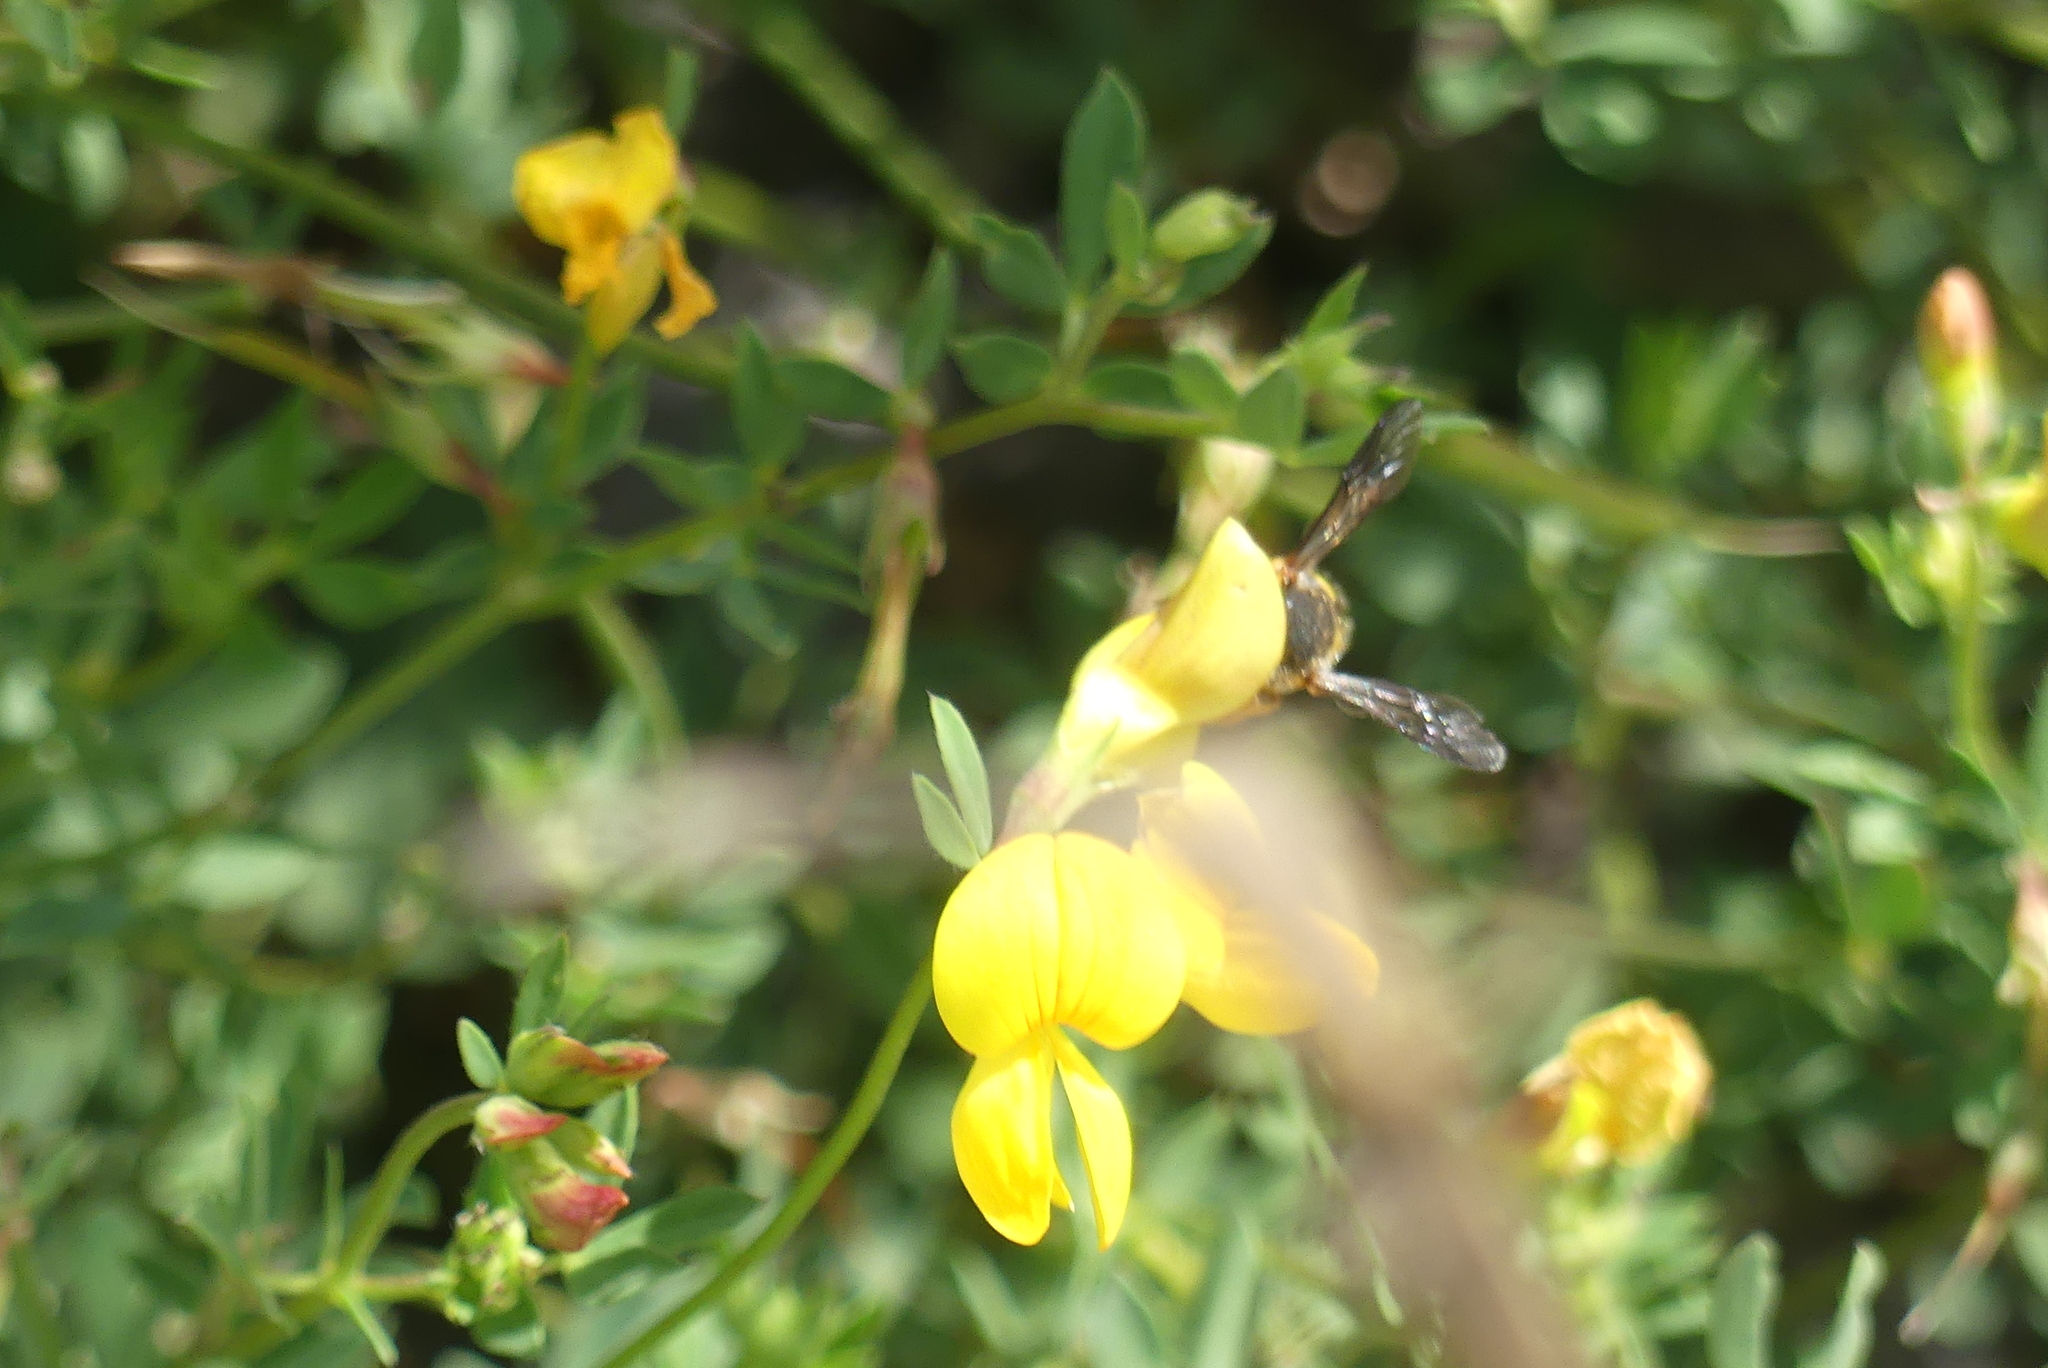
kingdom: Animalia
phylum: Arthropoda
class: Insecta
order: Hymenoptera
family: Megachilidae
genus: Anthidium
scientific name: Anthidium oblongatum
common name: Oblong wool carder bee
